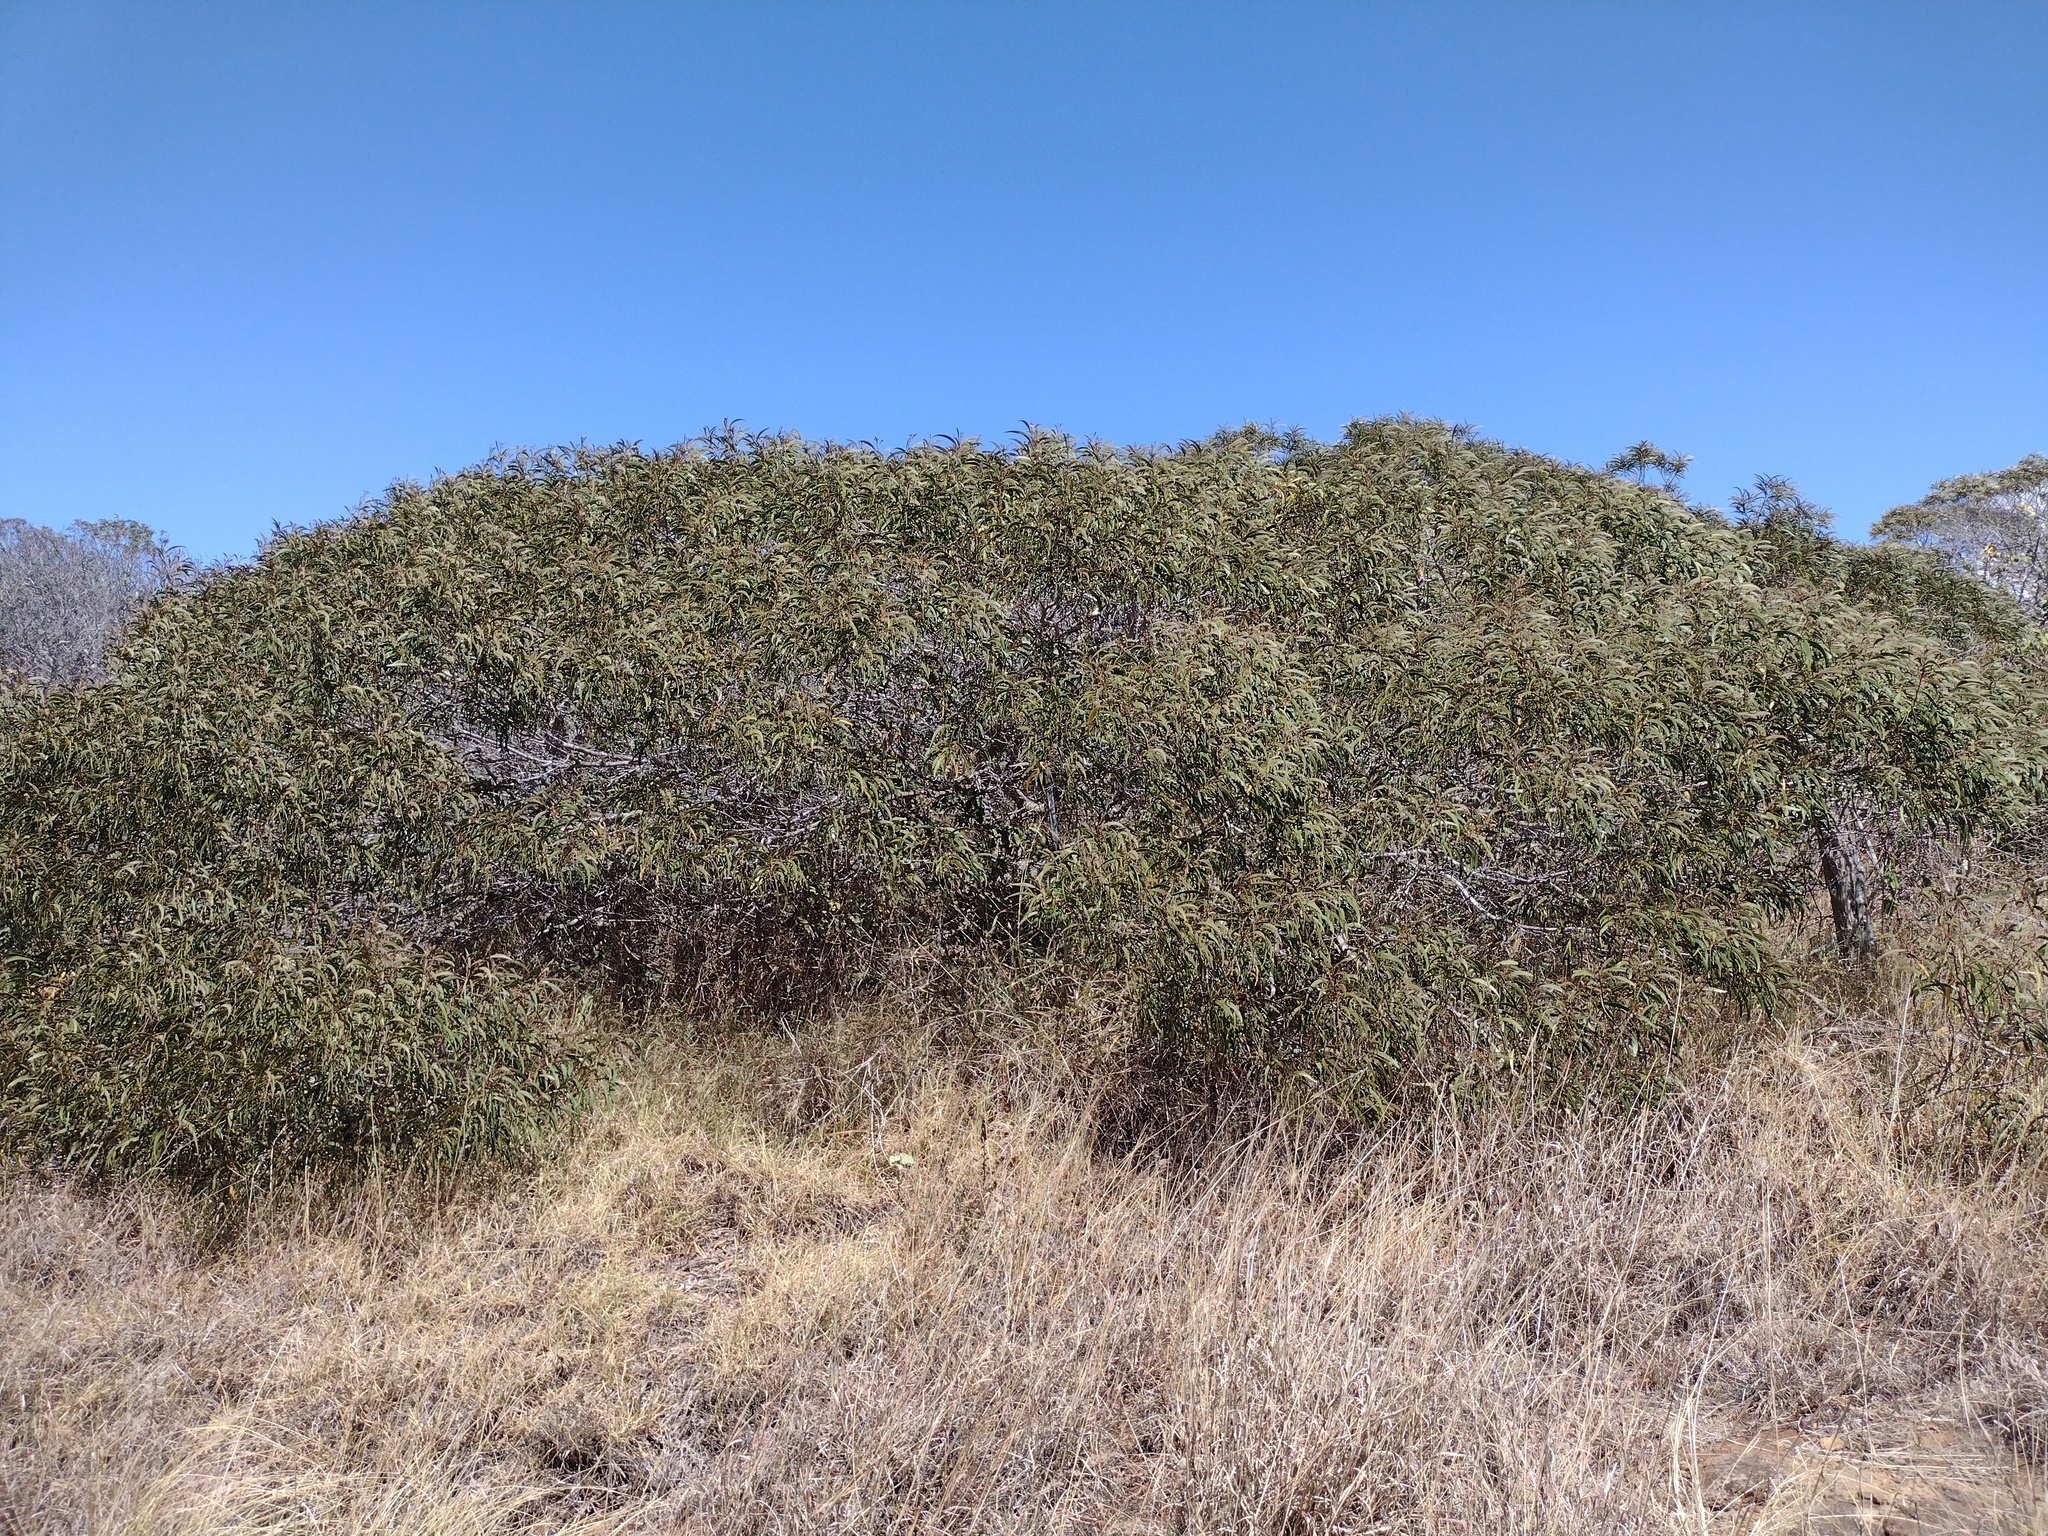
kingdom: Plantae
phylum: Tracheophyta
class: Magnoliopsida
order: Fabales
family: Fabaceae
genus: Acacia
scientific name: Acacia koa
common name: Gray koa
